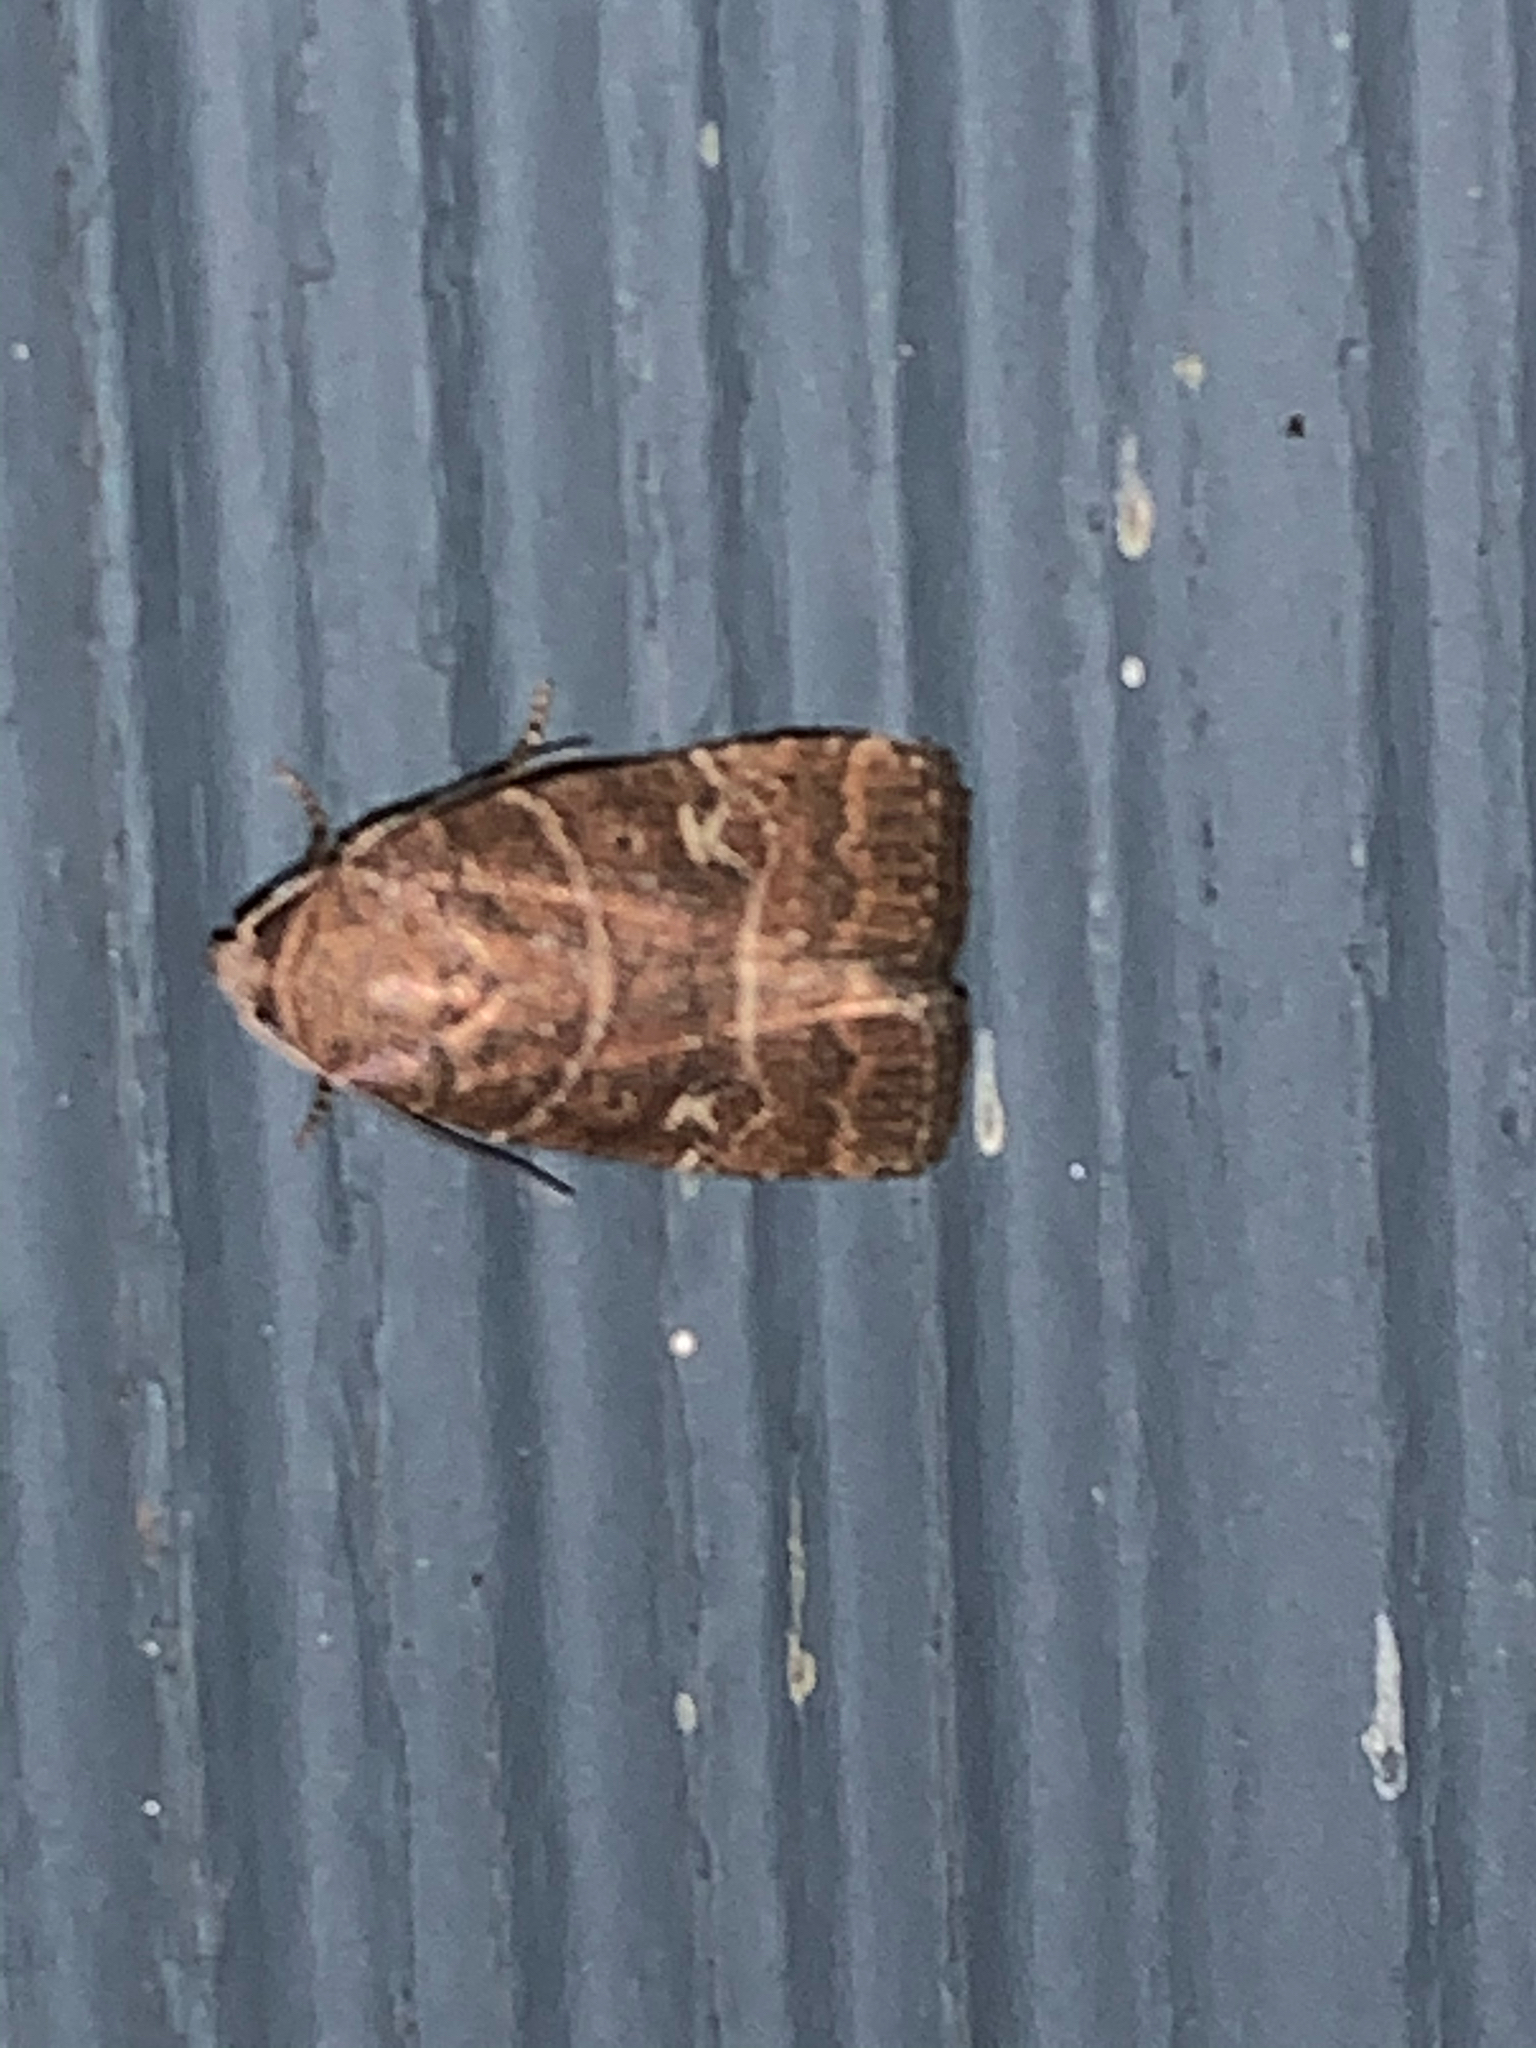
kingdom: Animalia
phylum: Arthropoda
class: Insecta
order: Lepidoptera
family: Noctuidae
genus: Elaphria
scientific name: Elaphria grata
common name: Grateful midget moth
